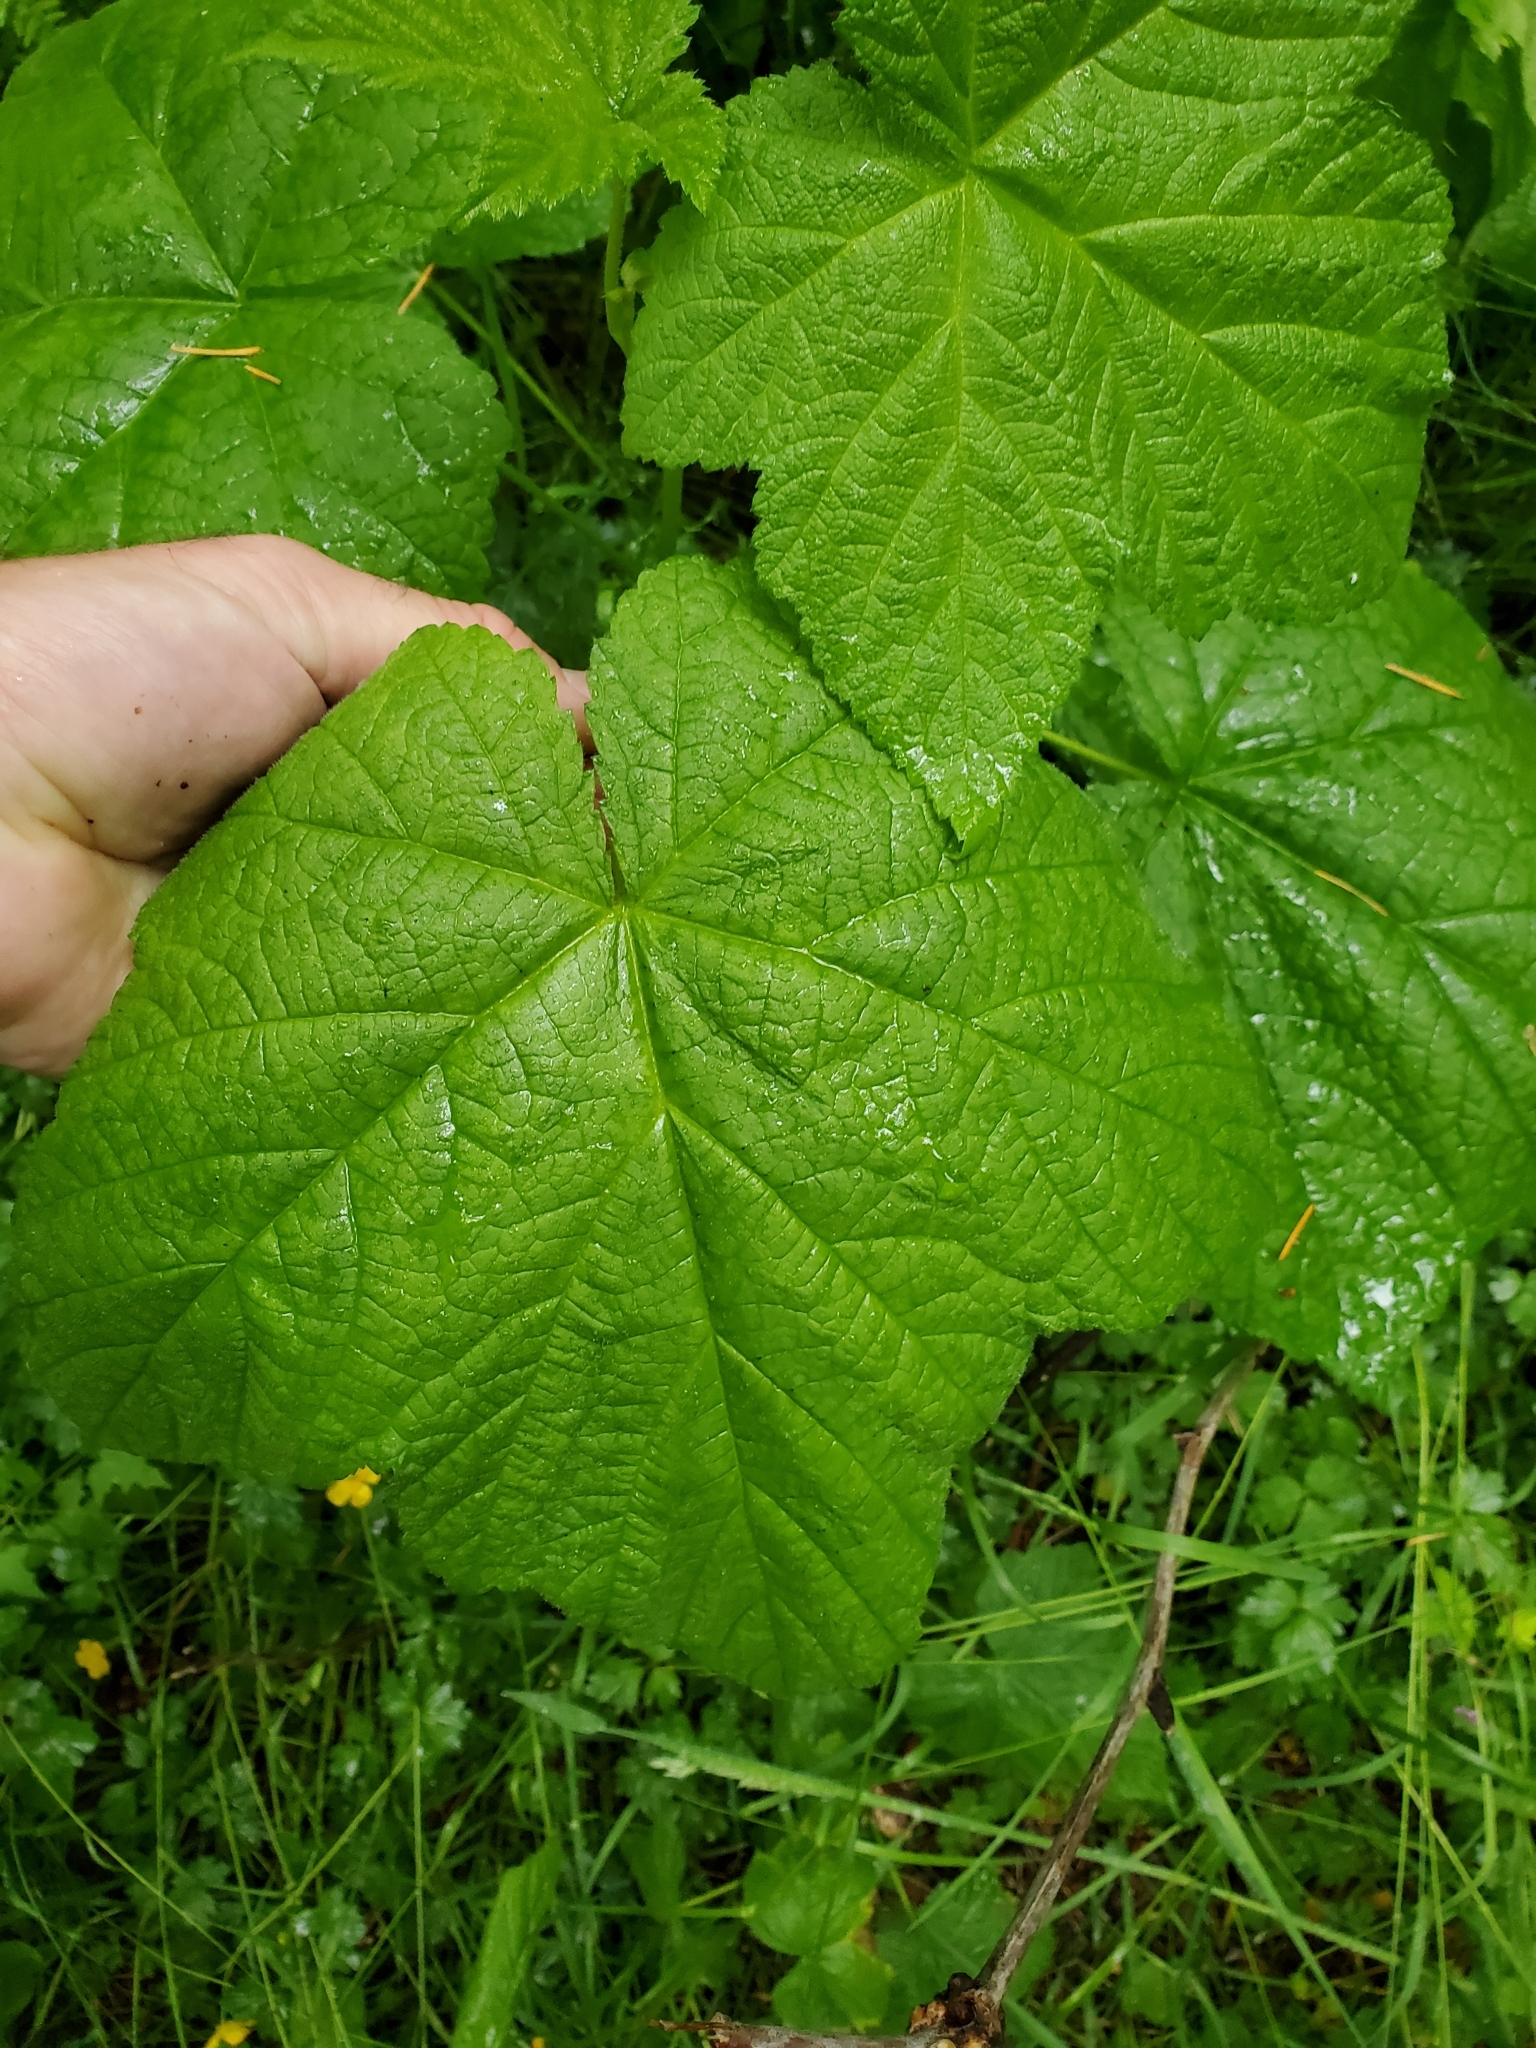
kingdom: Plantae
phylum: Tracheophyta
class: Magnoliopsida
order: Rosales
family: Rosaceae
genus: Rubus
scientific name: Rubus parviflorus
